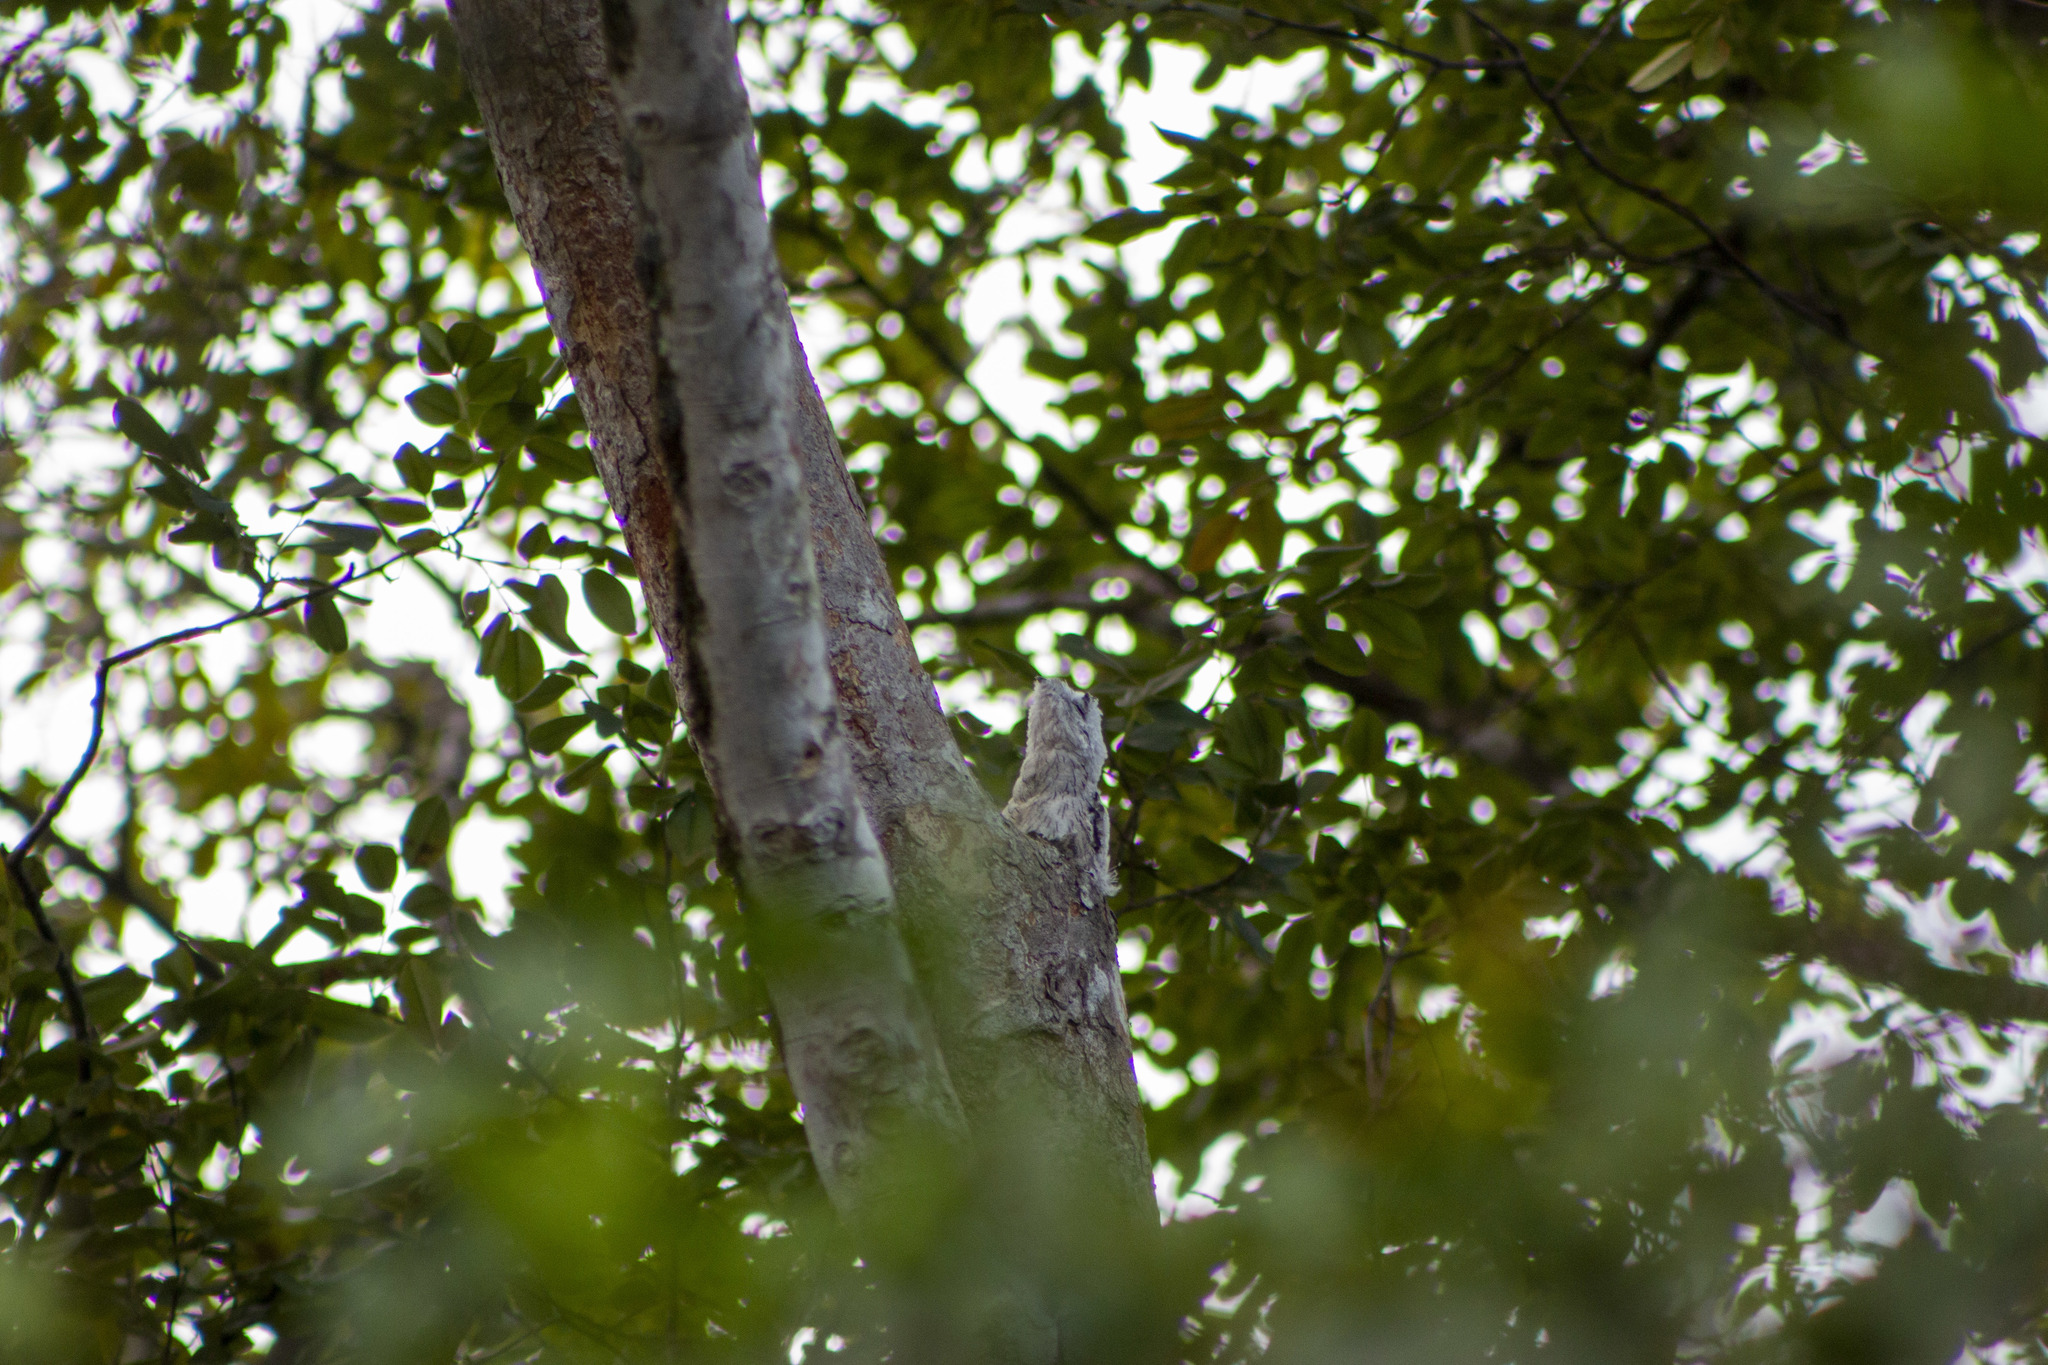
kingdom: Animalia
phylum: Chordata
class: Aves
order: Nyctibiiformes
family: Nyctibiidae
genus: Nyctibius
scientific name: Nyctibius griseus
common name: Common potoo
